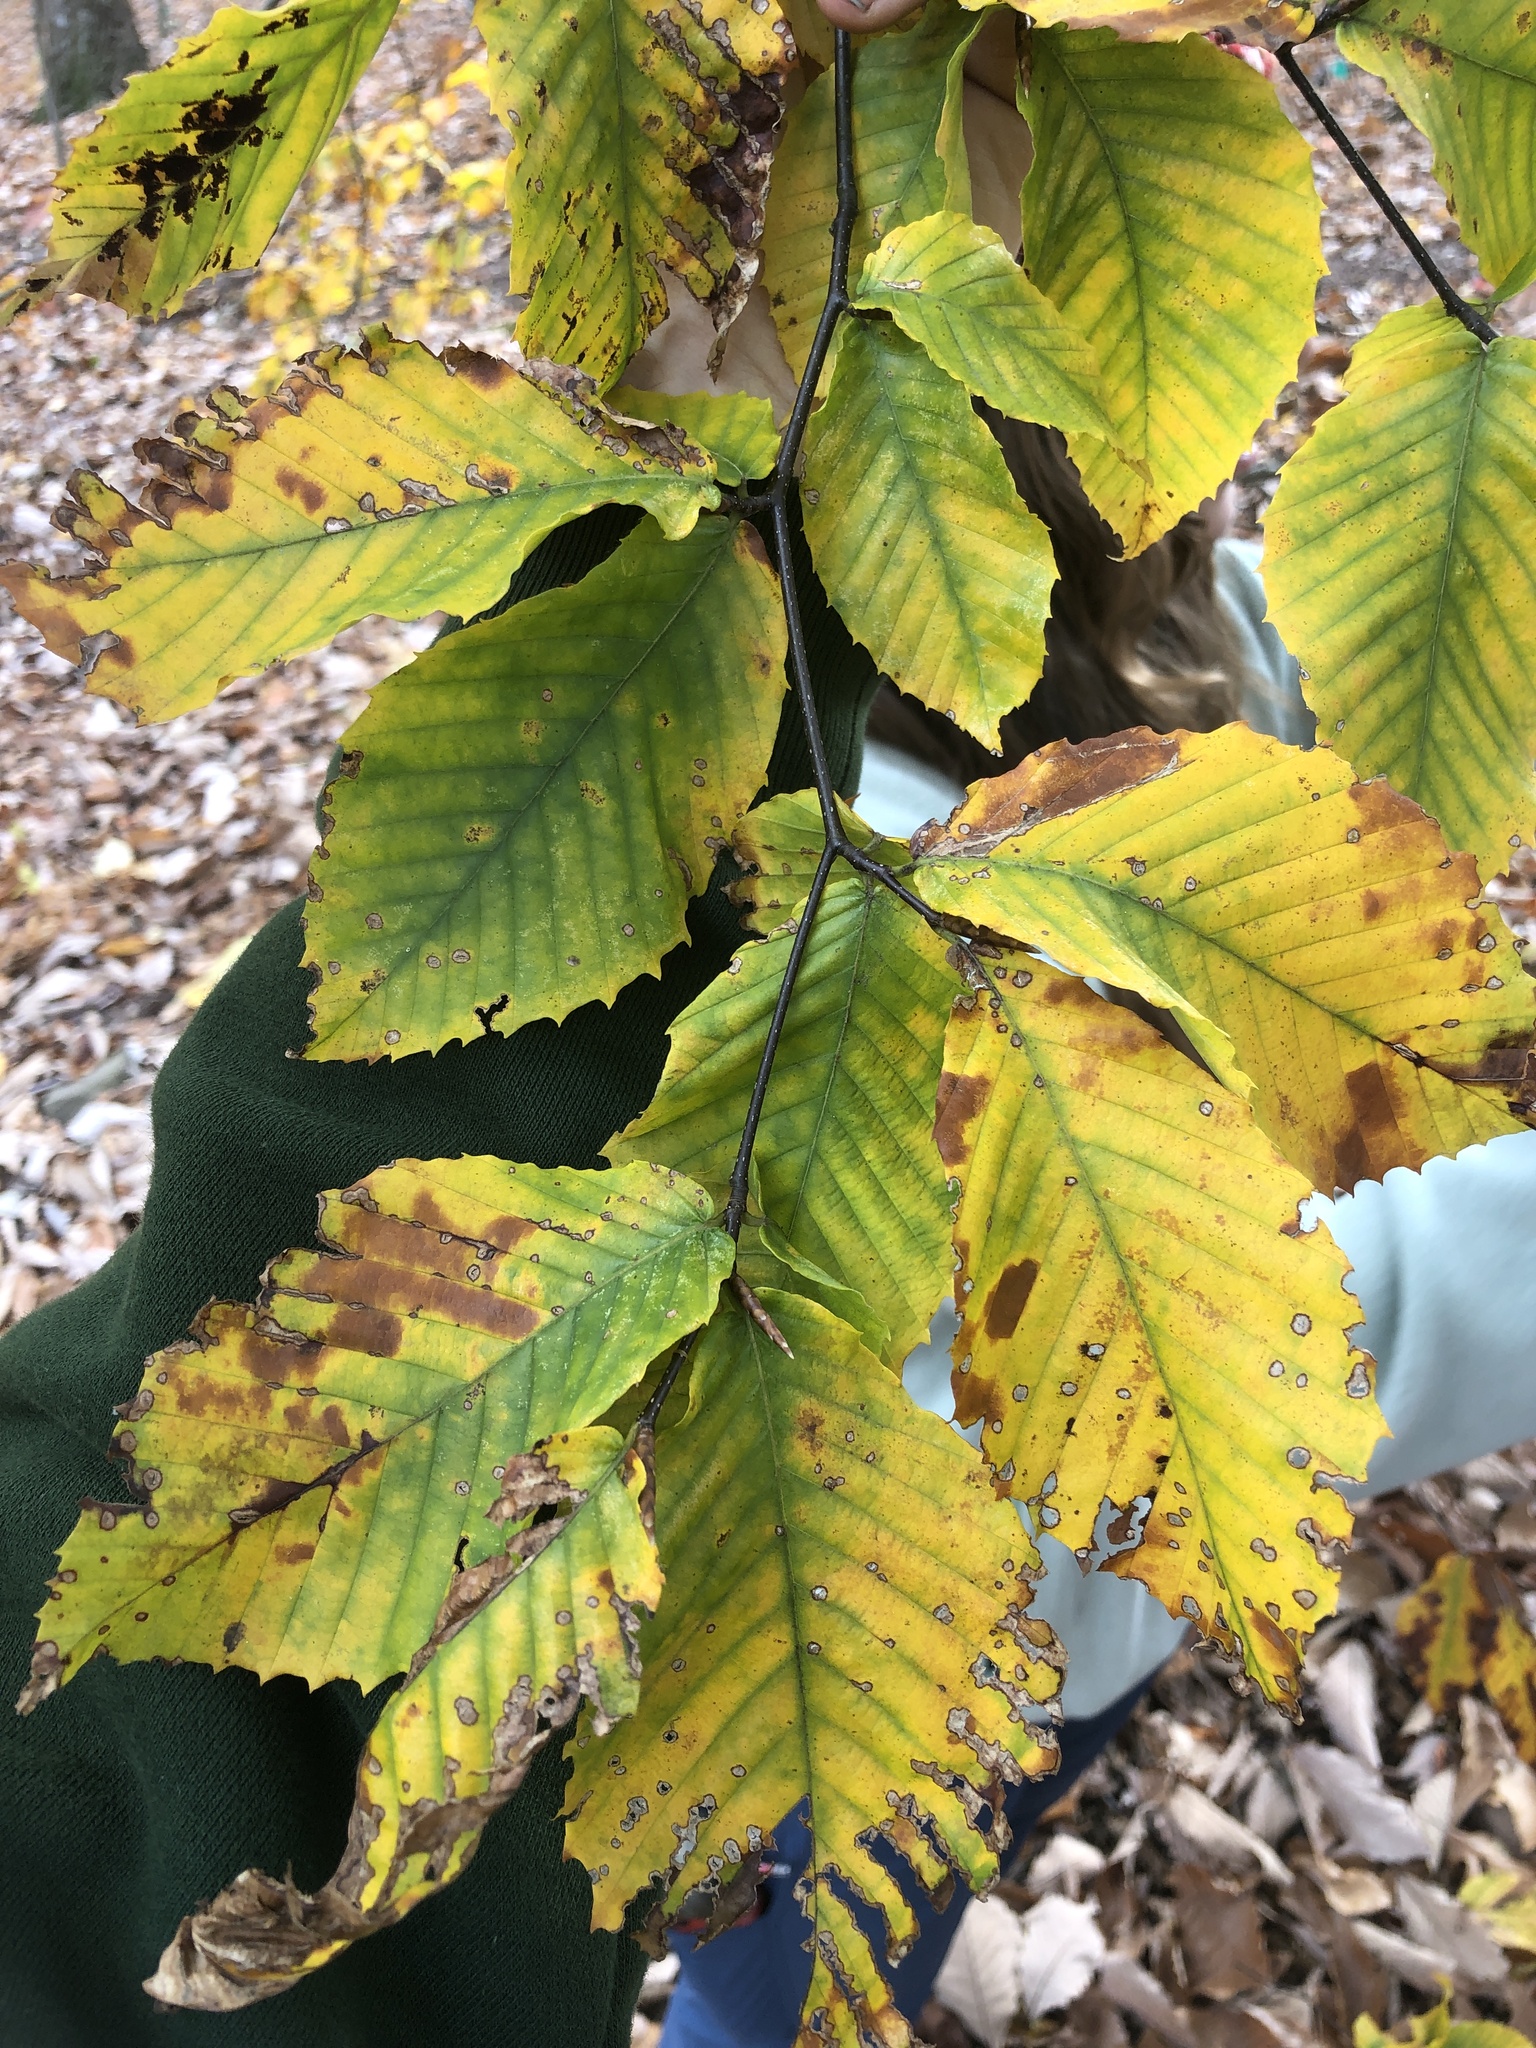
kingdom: Plantae
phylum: Tracheophyta
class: Magnoliopsida
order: Fagales
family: Fagaceae
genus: Fagus
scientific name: Fagus grandifolia
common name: American beech
